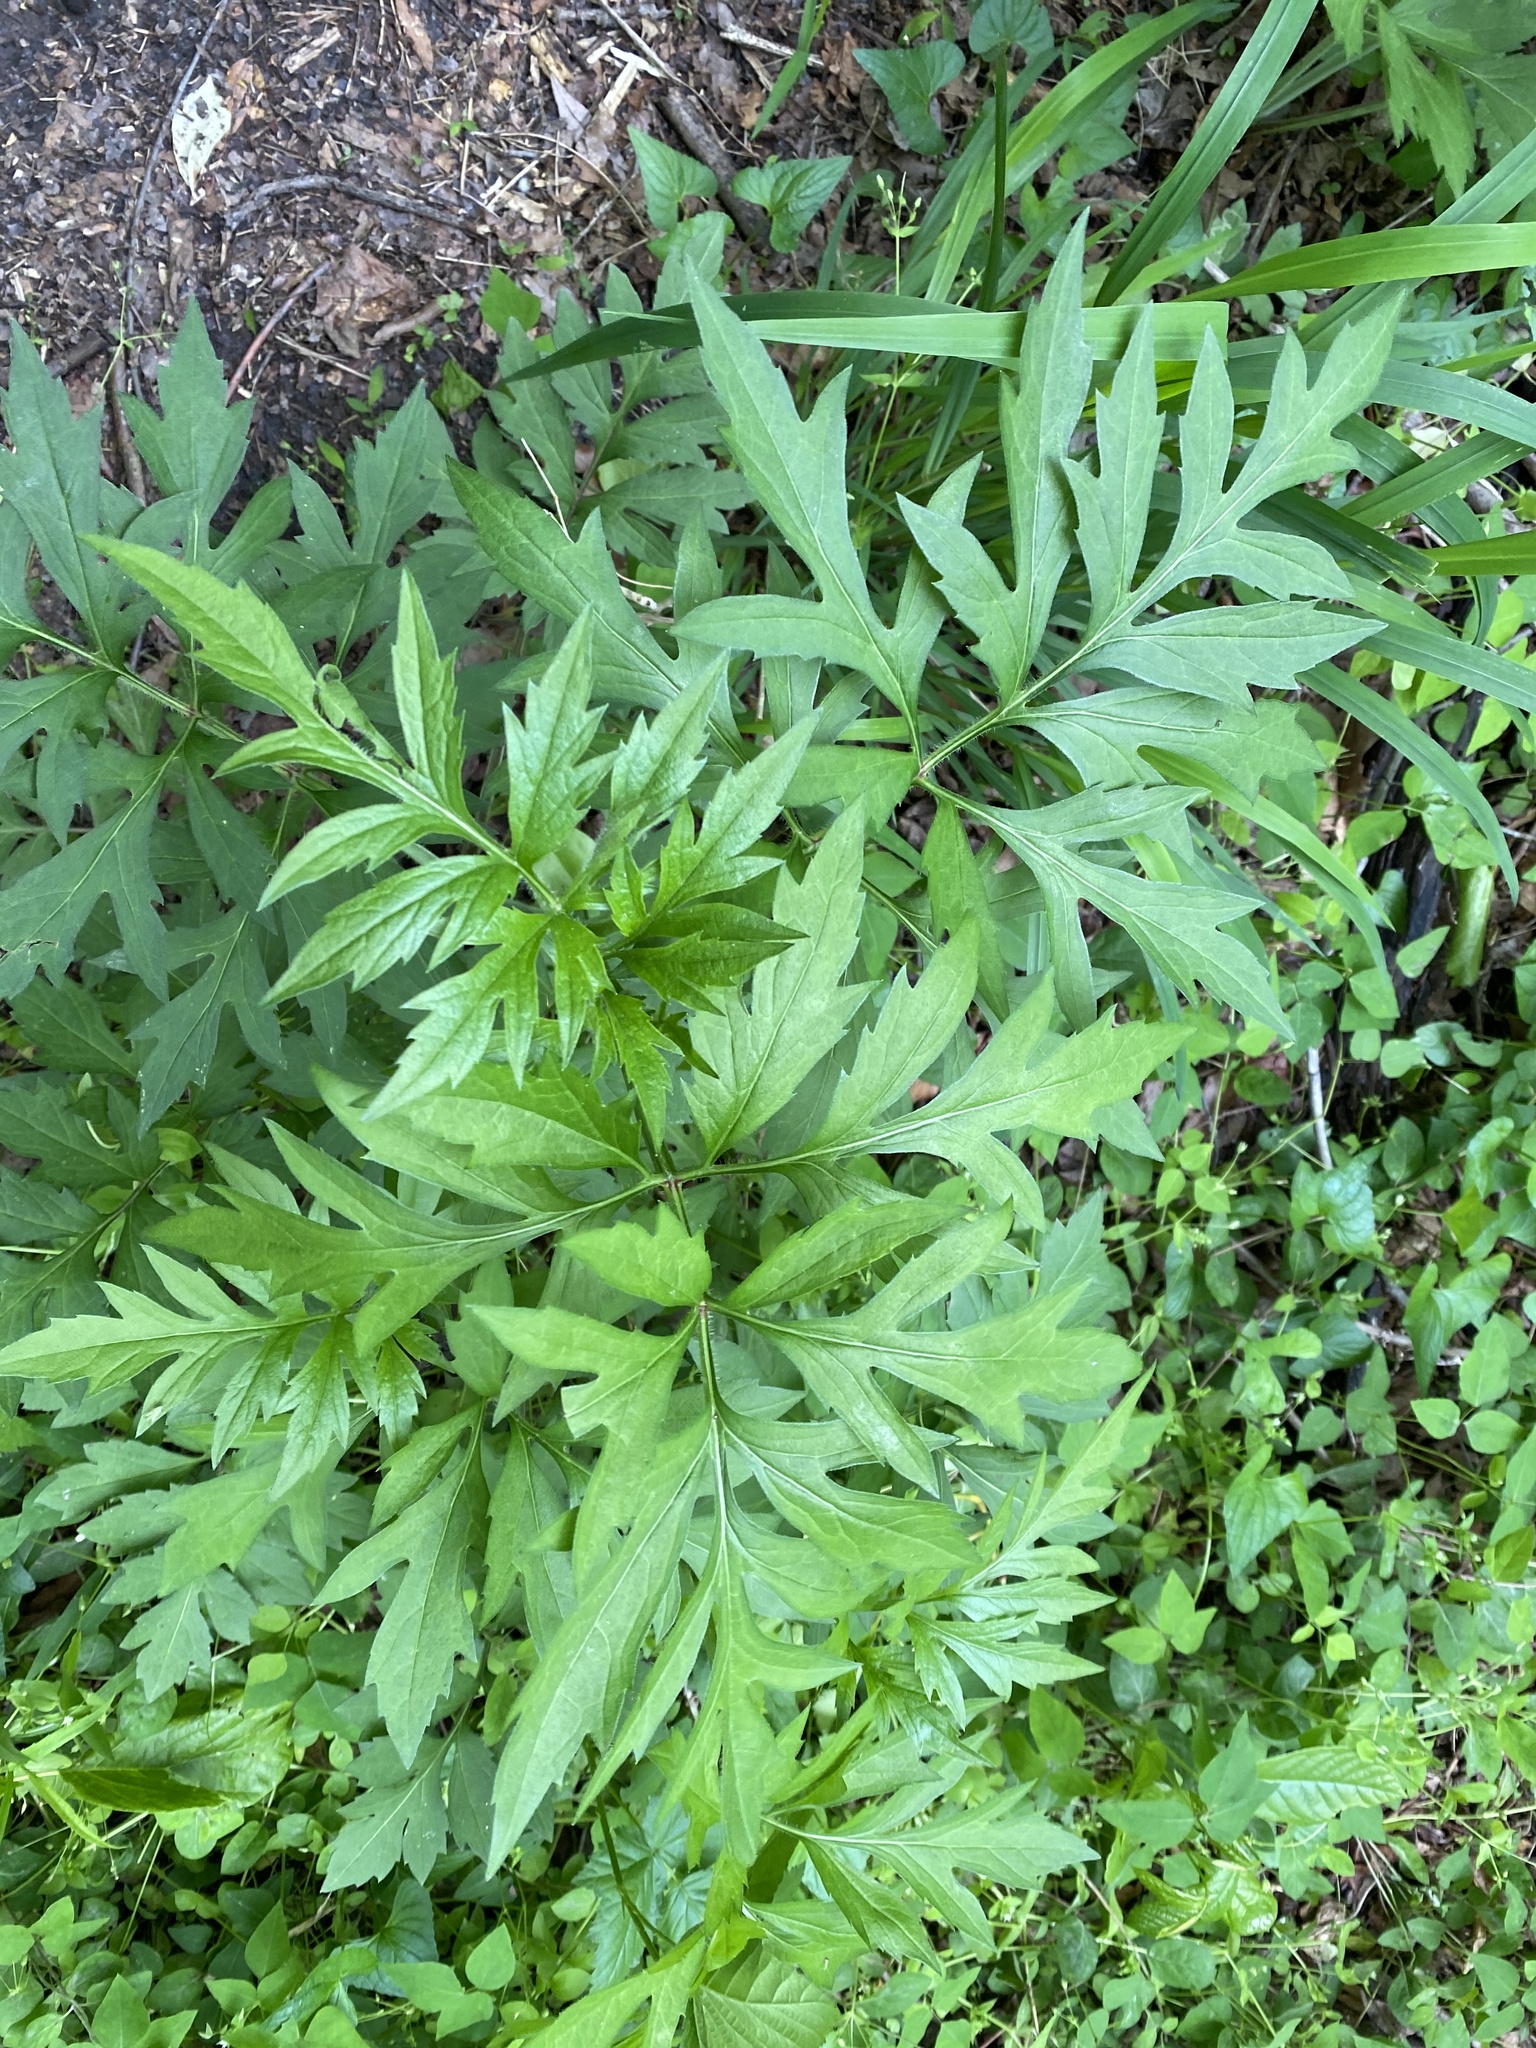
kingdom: Plantae
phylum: Tracheophyta
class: Magnoliopsida
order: Asterales
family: Asteraceae
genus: Rudbeckia
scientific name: Rudbeckia laciniata
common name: Coneflower
